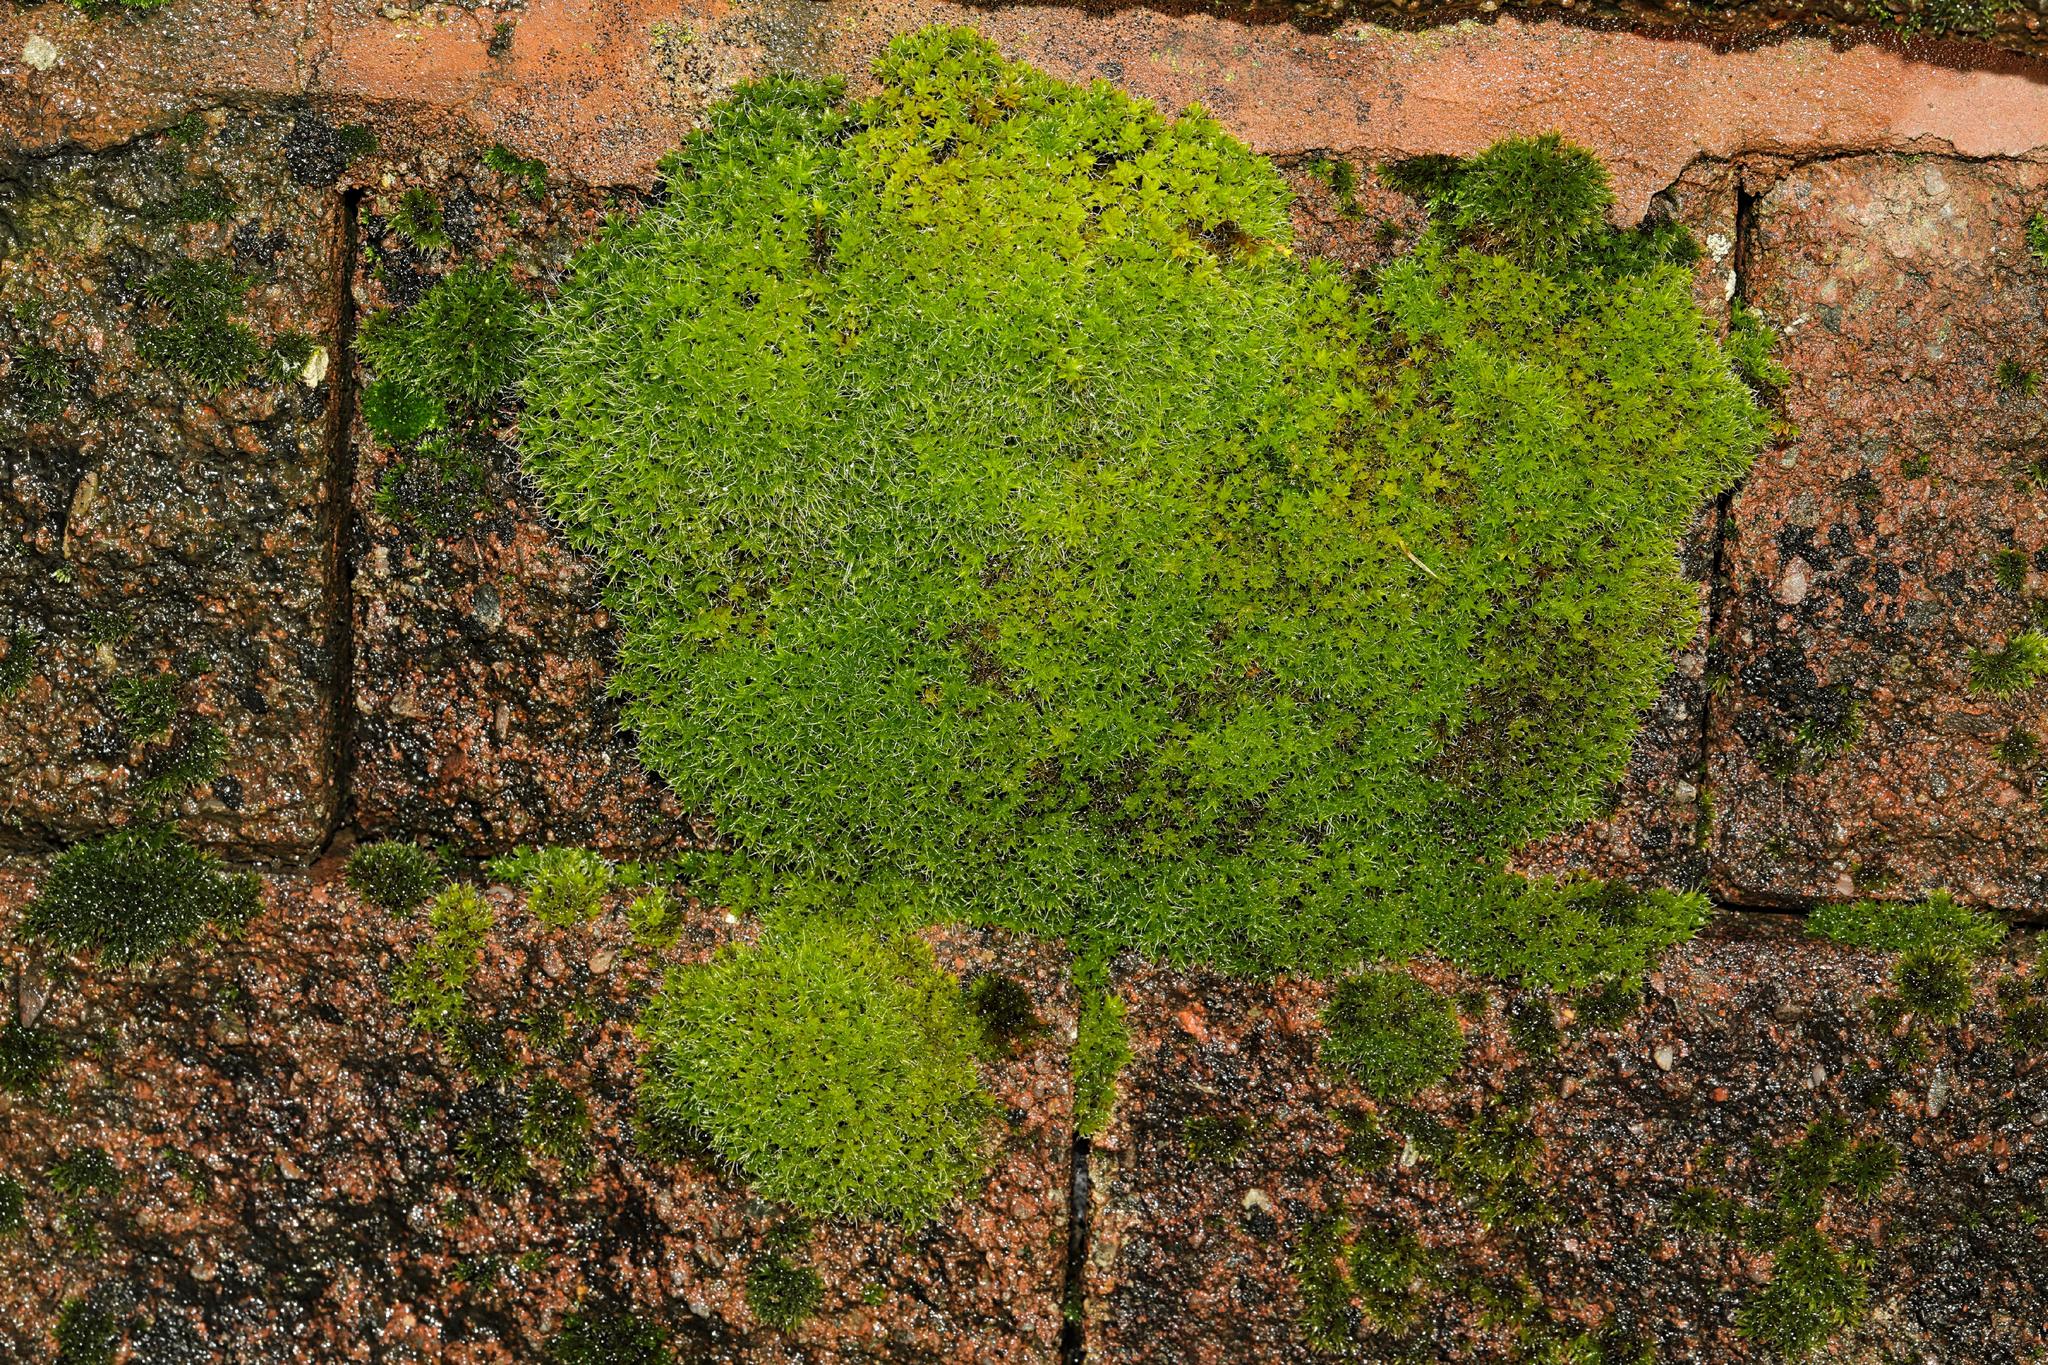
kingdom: Plantae
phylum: Bryophyta
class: Bryopsida
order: Pottiales
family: Pottiaceae
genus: Syntrichia
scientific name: Syntrichia montana
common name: Intermediate screw-moss
